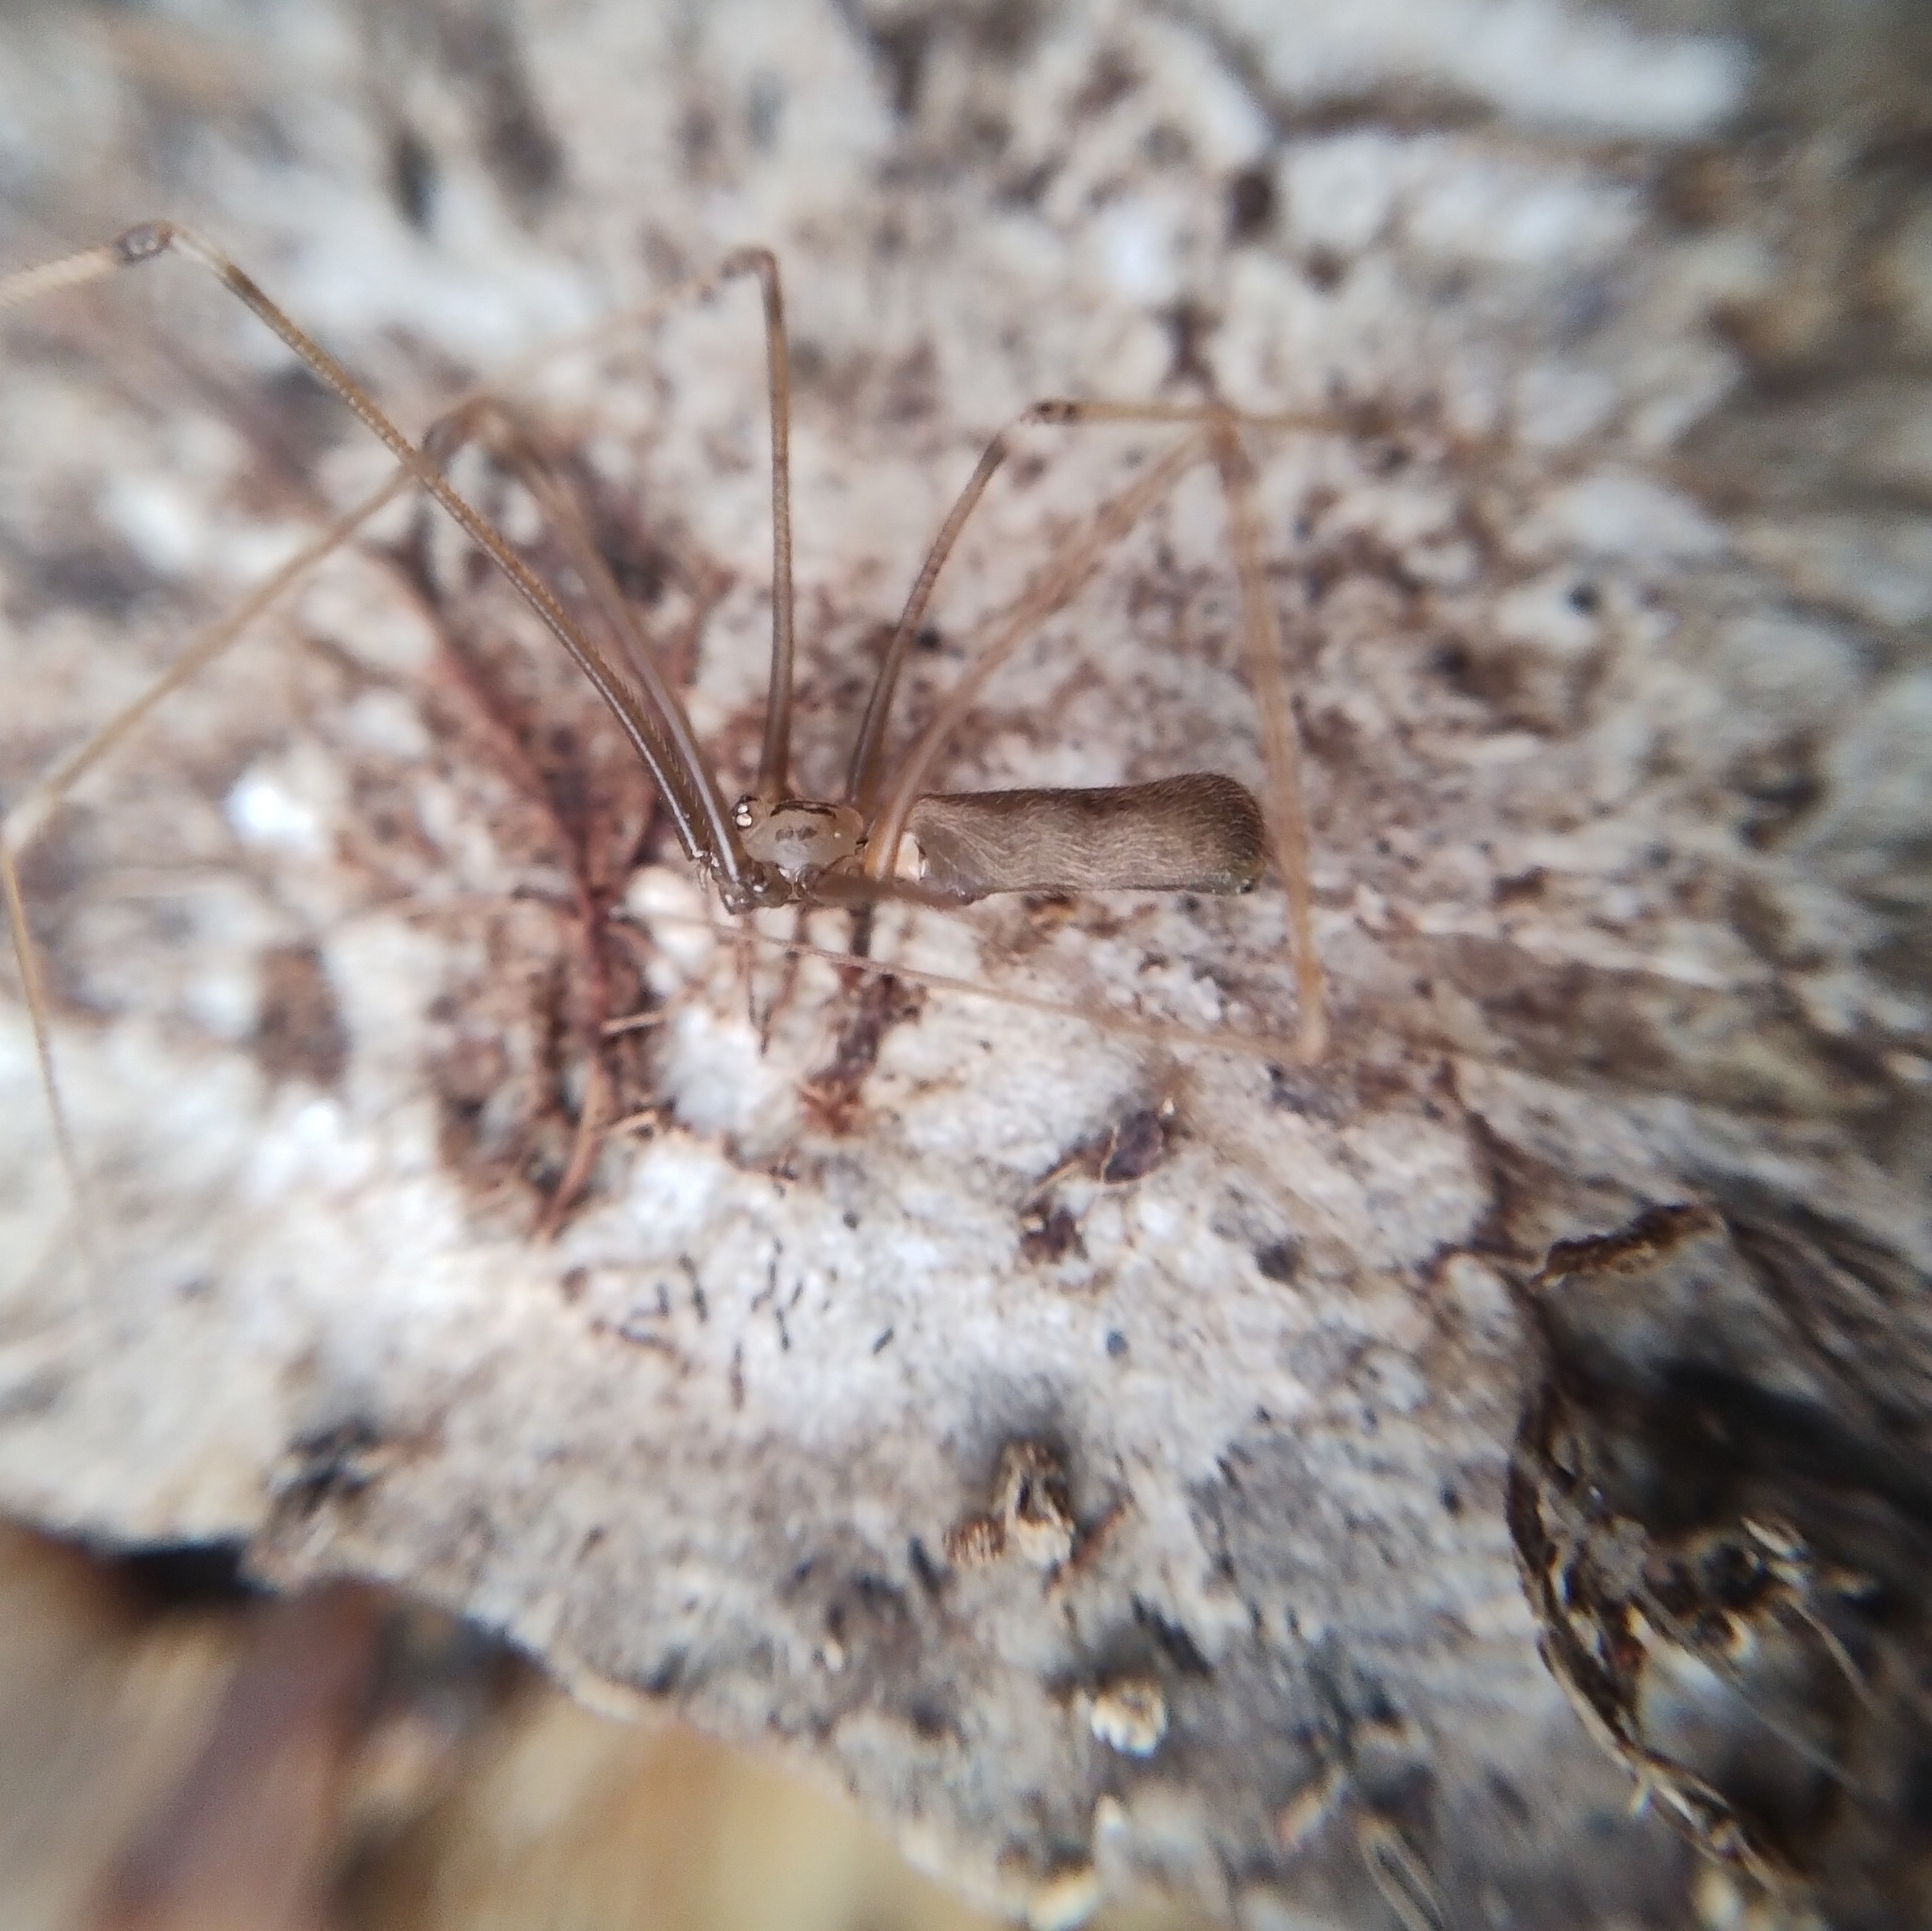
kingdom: Animalia
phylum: Arthropoda
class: Arachnida
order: Araneae
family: Pholcidae
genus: Pholcus
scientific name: Pholcus opilionoides
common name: Daddylongleg spider
